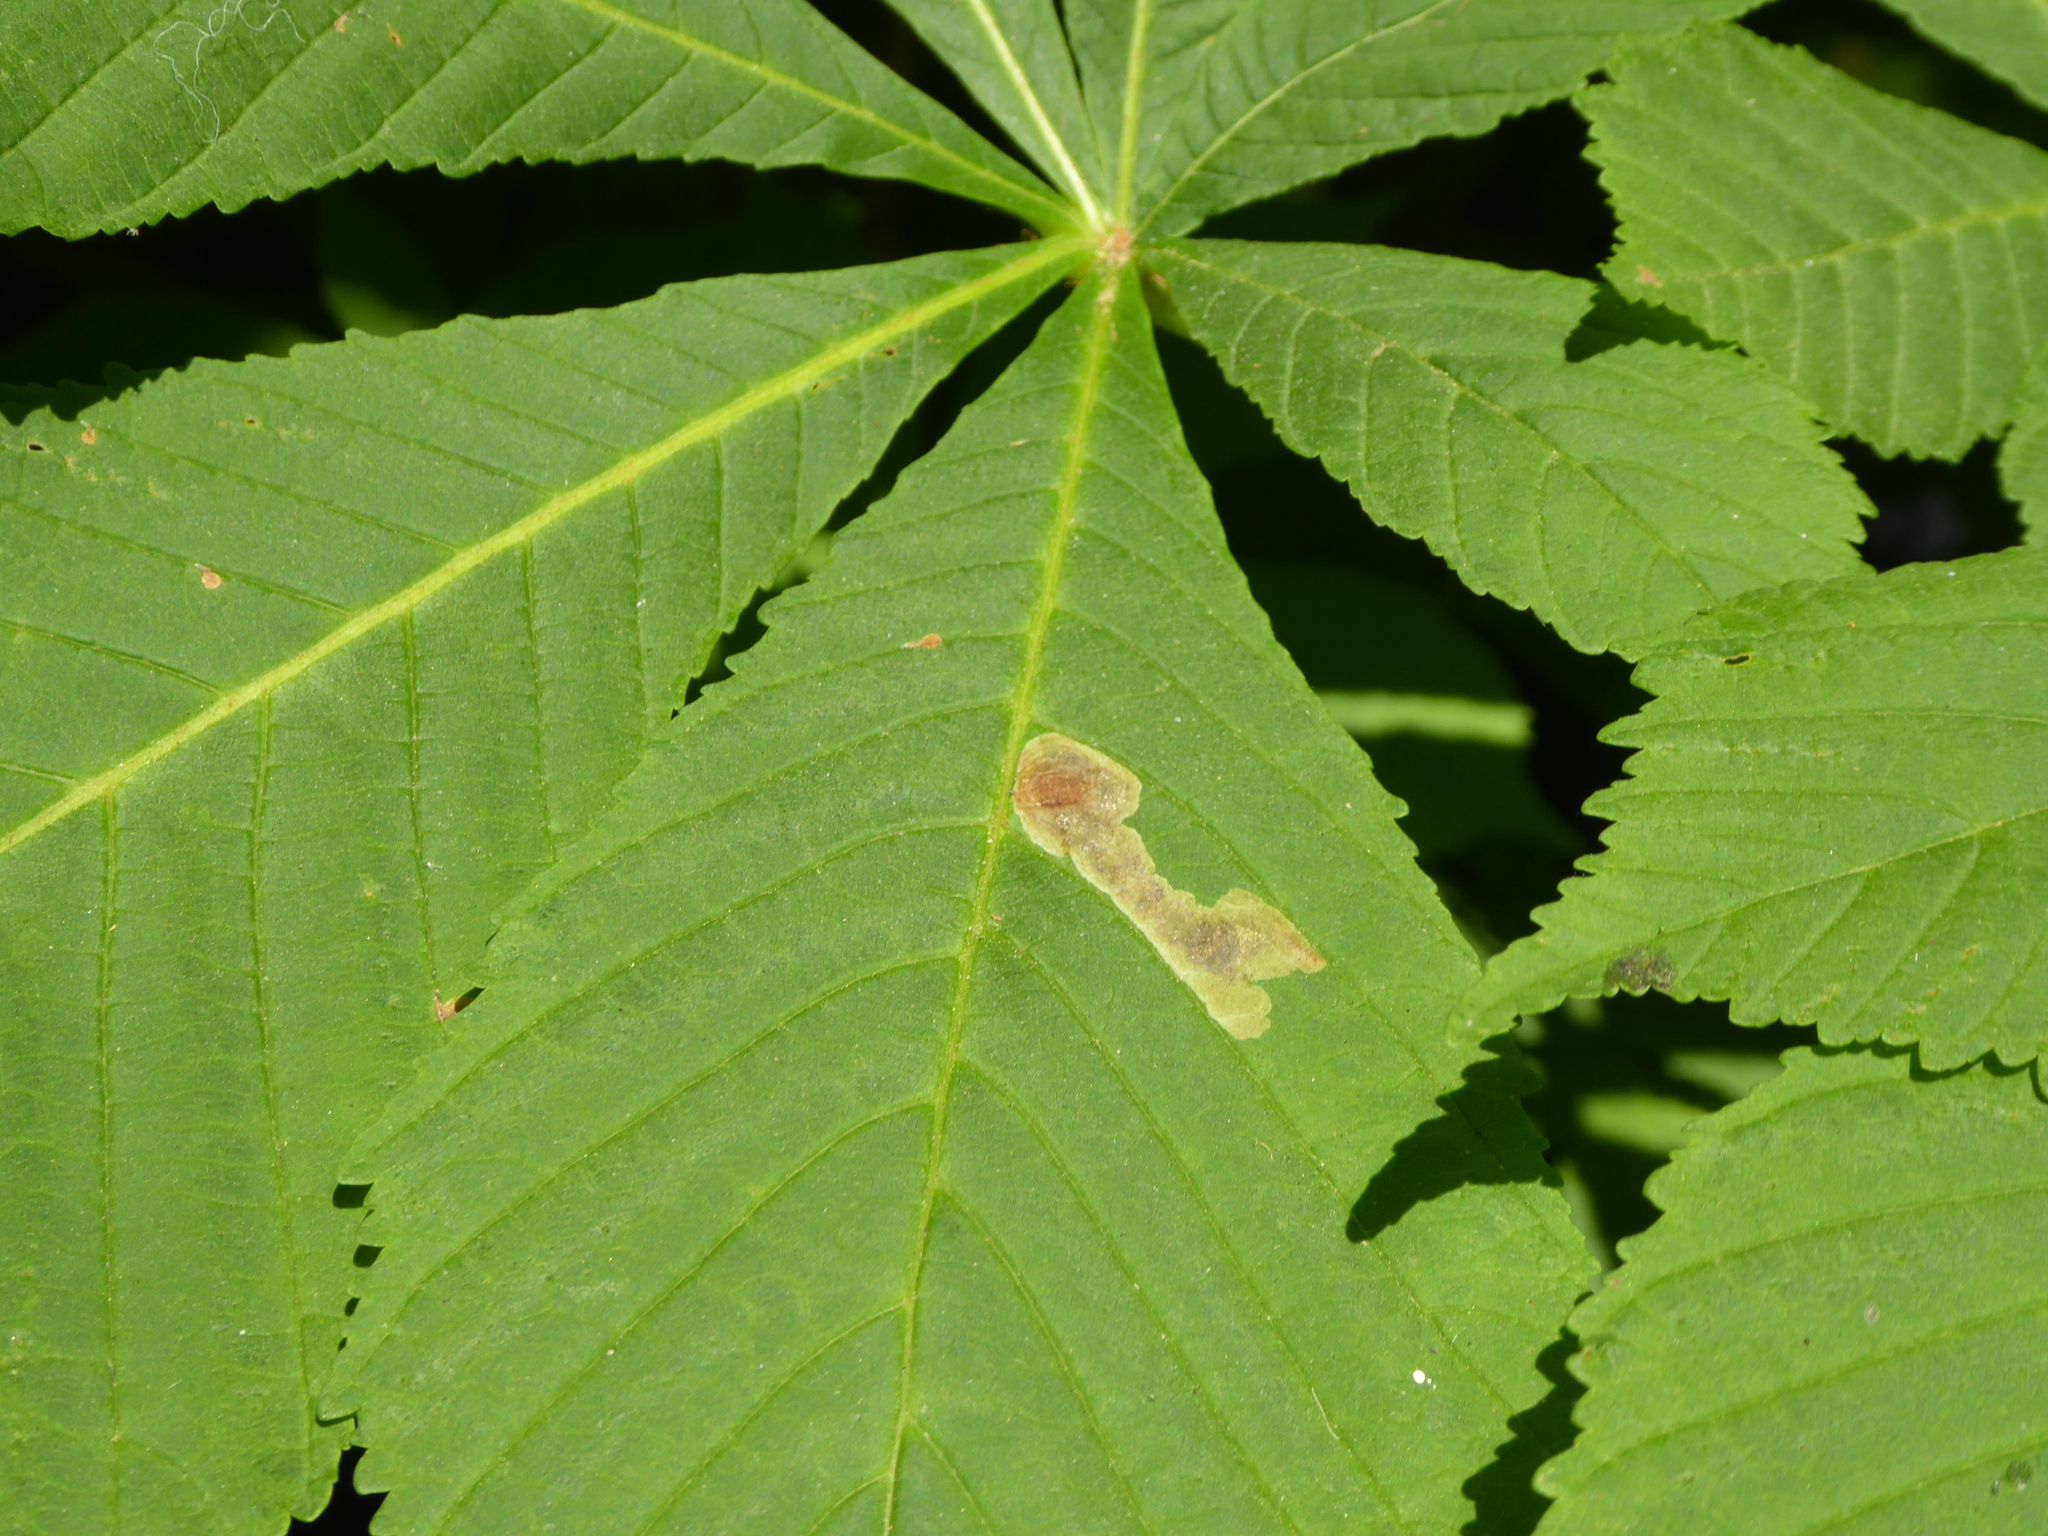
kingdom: Animalia
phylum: Arthropoda
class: Insecta
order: Lepidoptera
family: Gracillariidae
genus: Cameraria
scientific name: Cameraria ohridella
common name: Horse-chestnut leaf-miner
